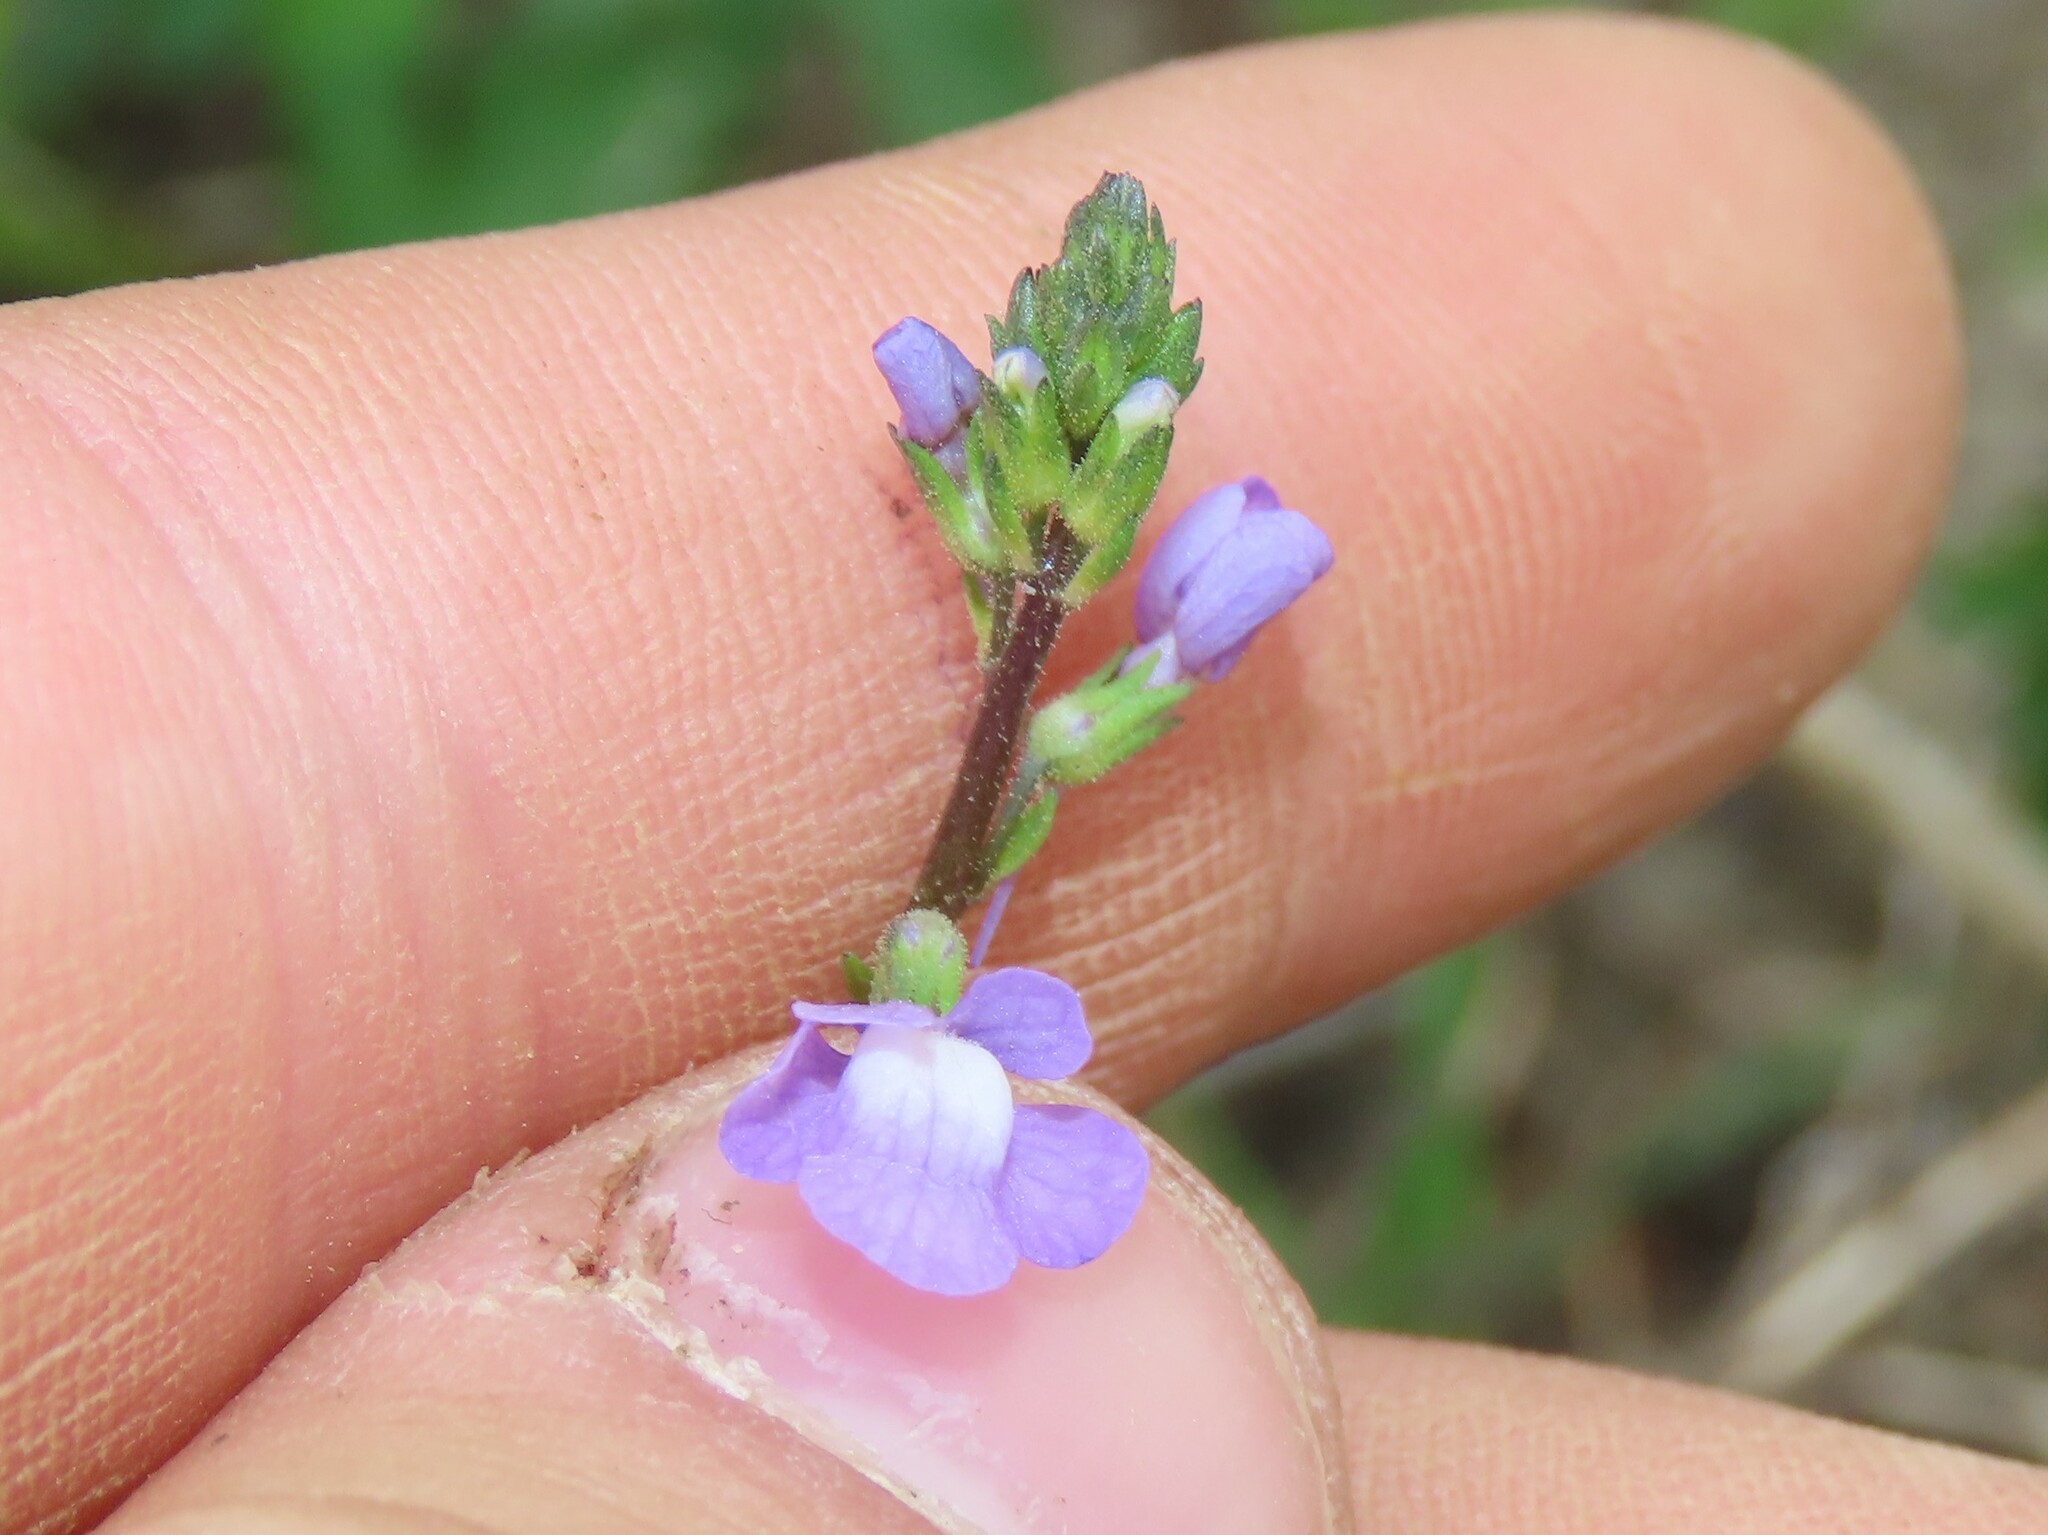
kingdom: Plantae
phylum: Tracheophyta
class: Magnoliopsida
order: Lamiales
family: Plantaginaceae
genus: Nuttallanthus
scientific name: Nuttallanthus canadensis
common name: Blue toadflax
